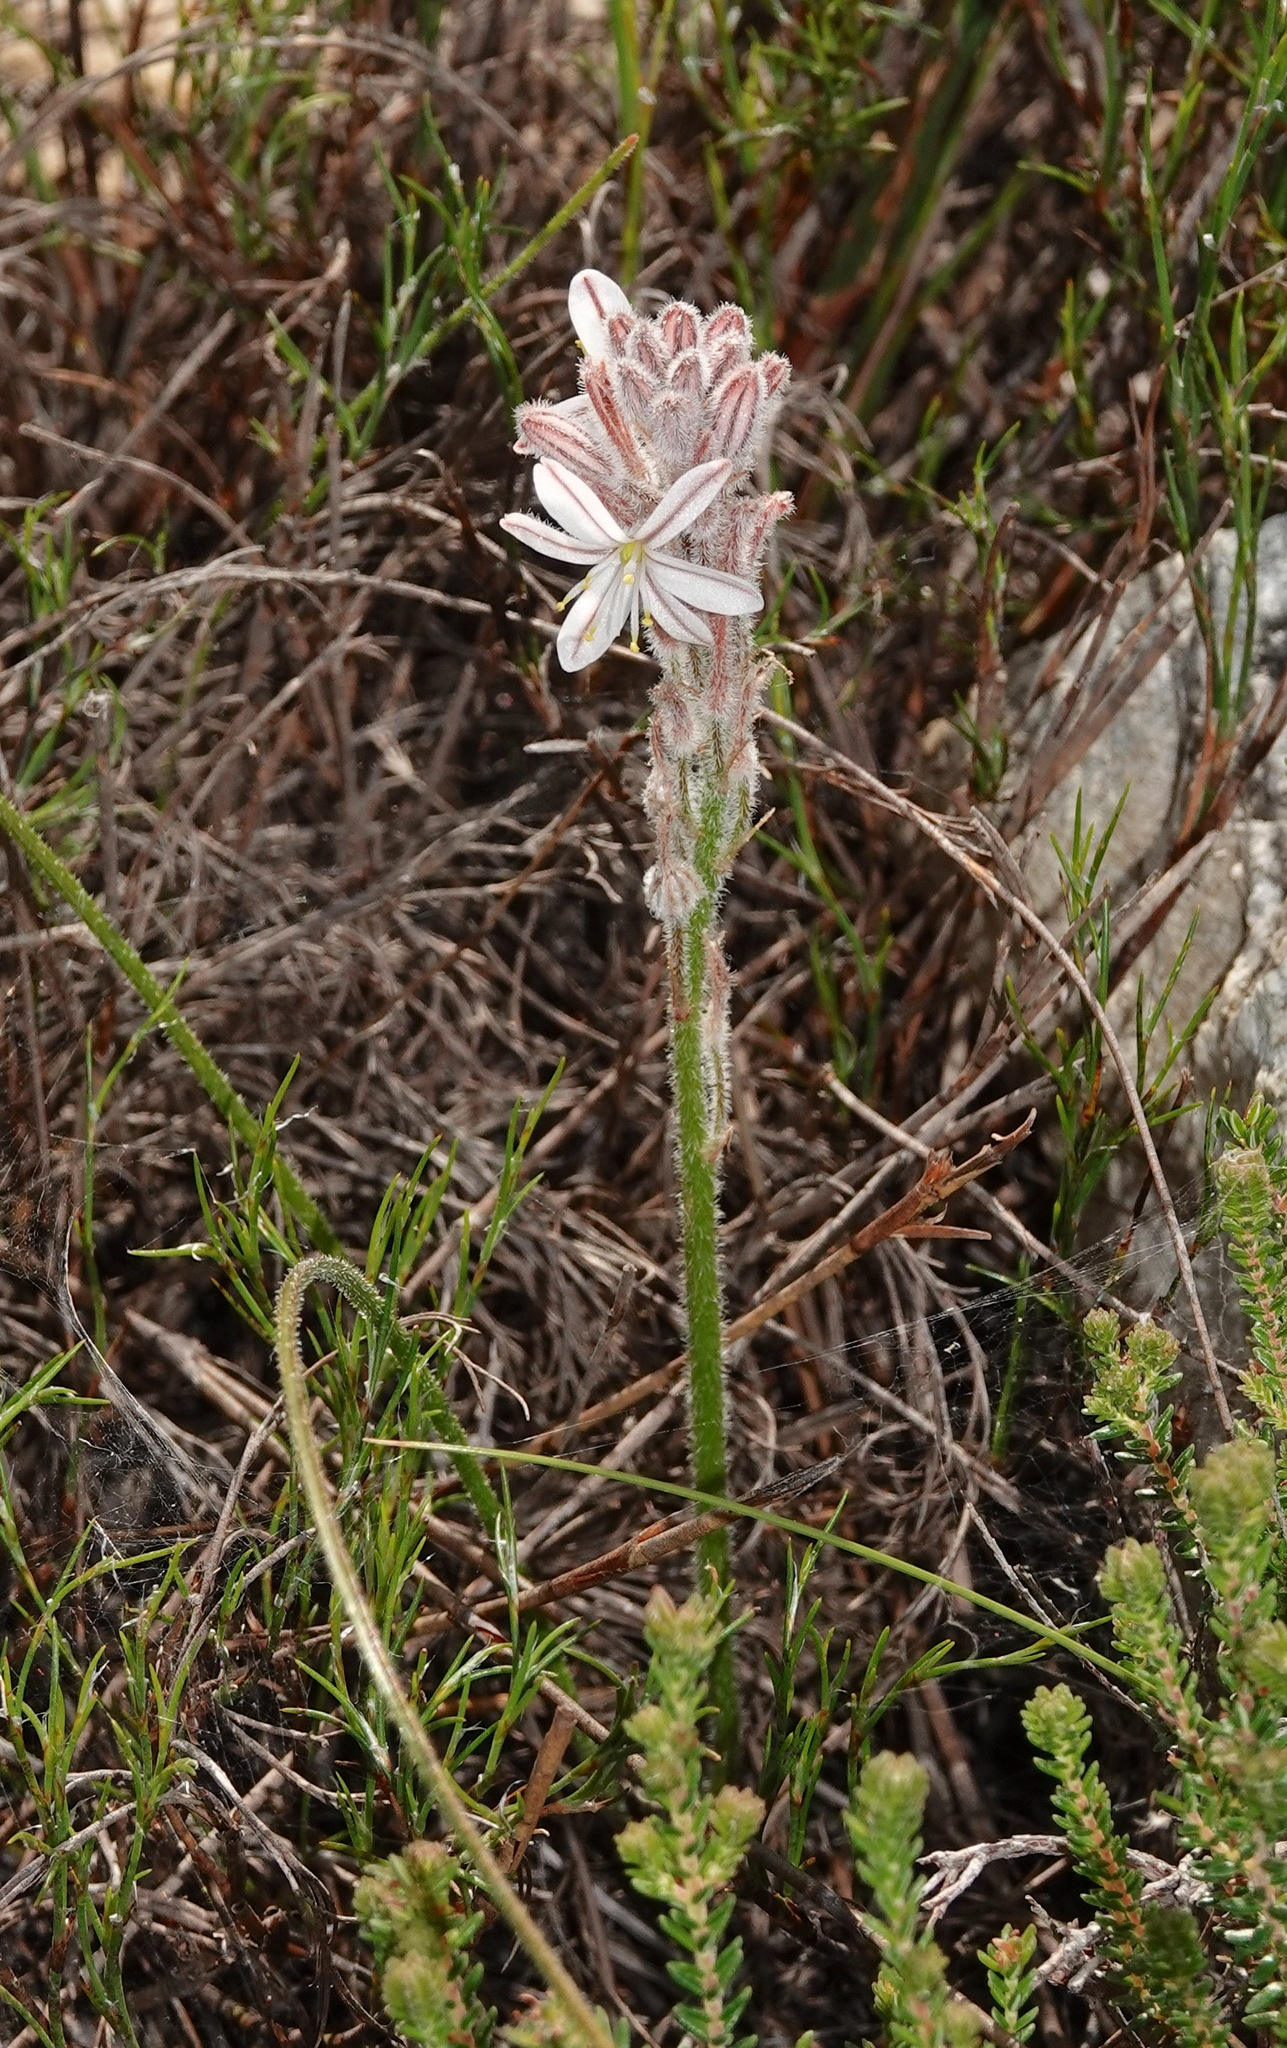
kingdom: Plantae
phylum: Tracheophyta
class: Liliopsida
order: Asparagales
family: Asphodelaceae
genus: Trachyandra
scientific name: Trachyandra hirsutiflora
